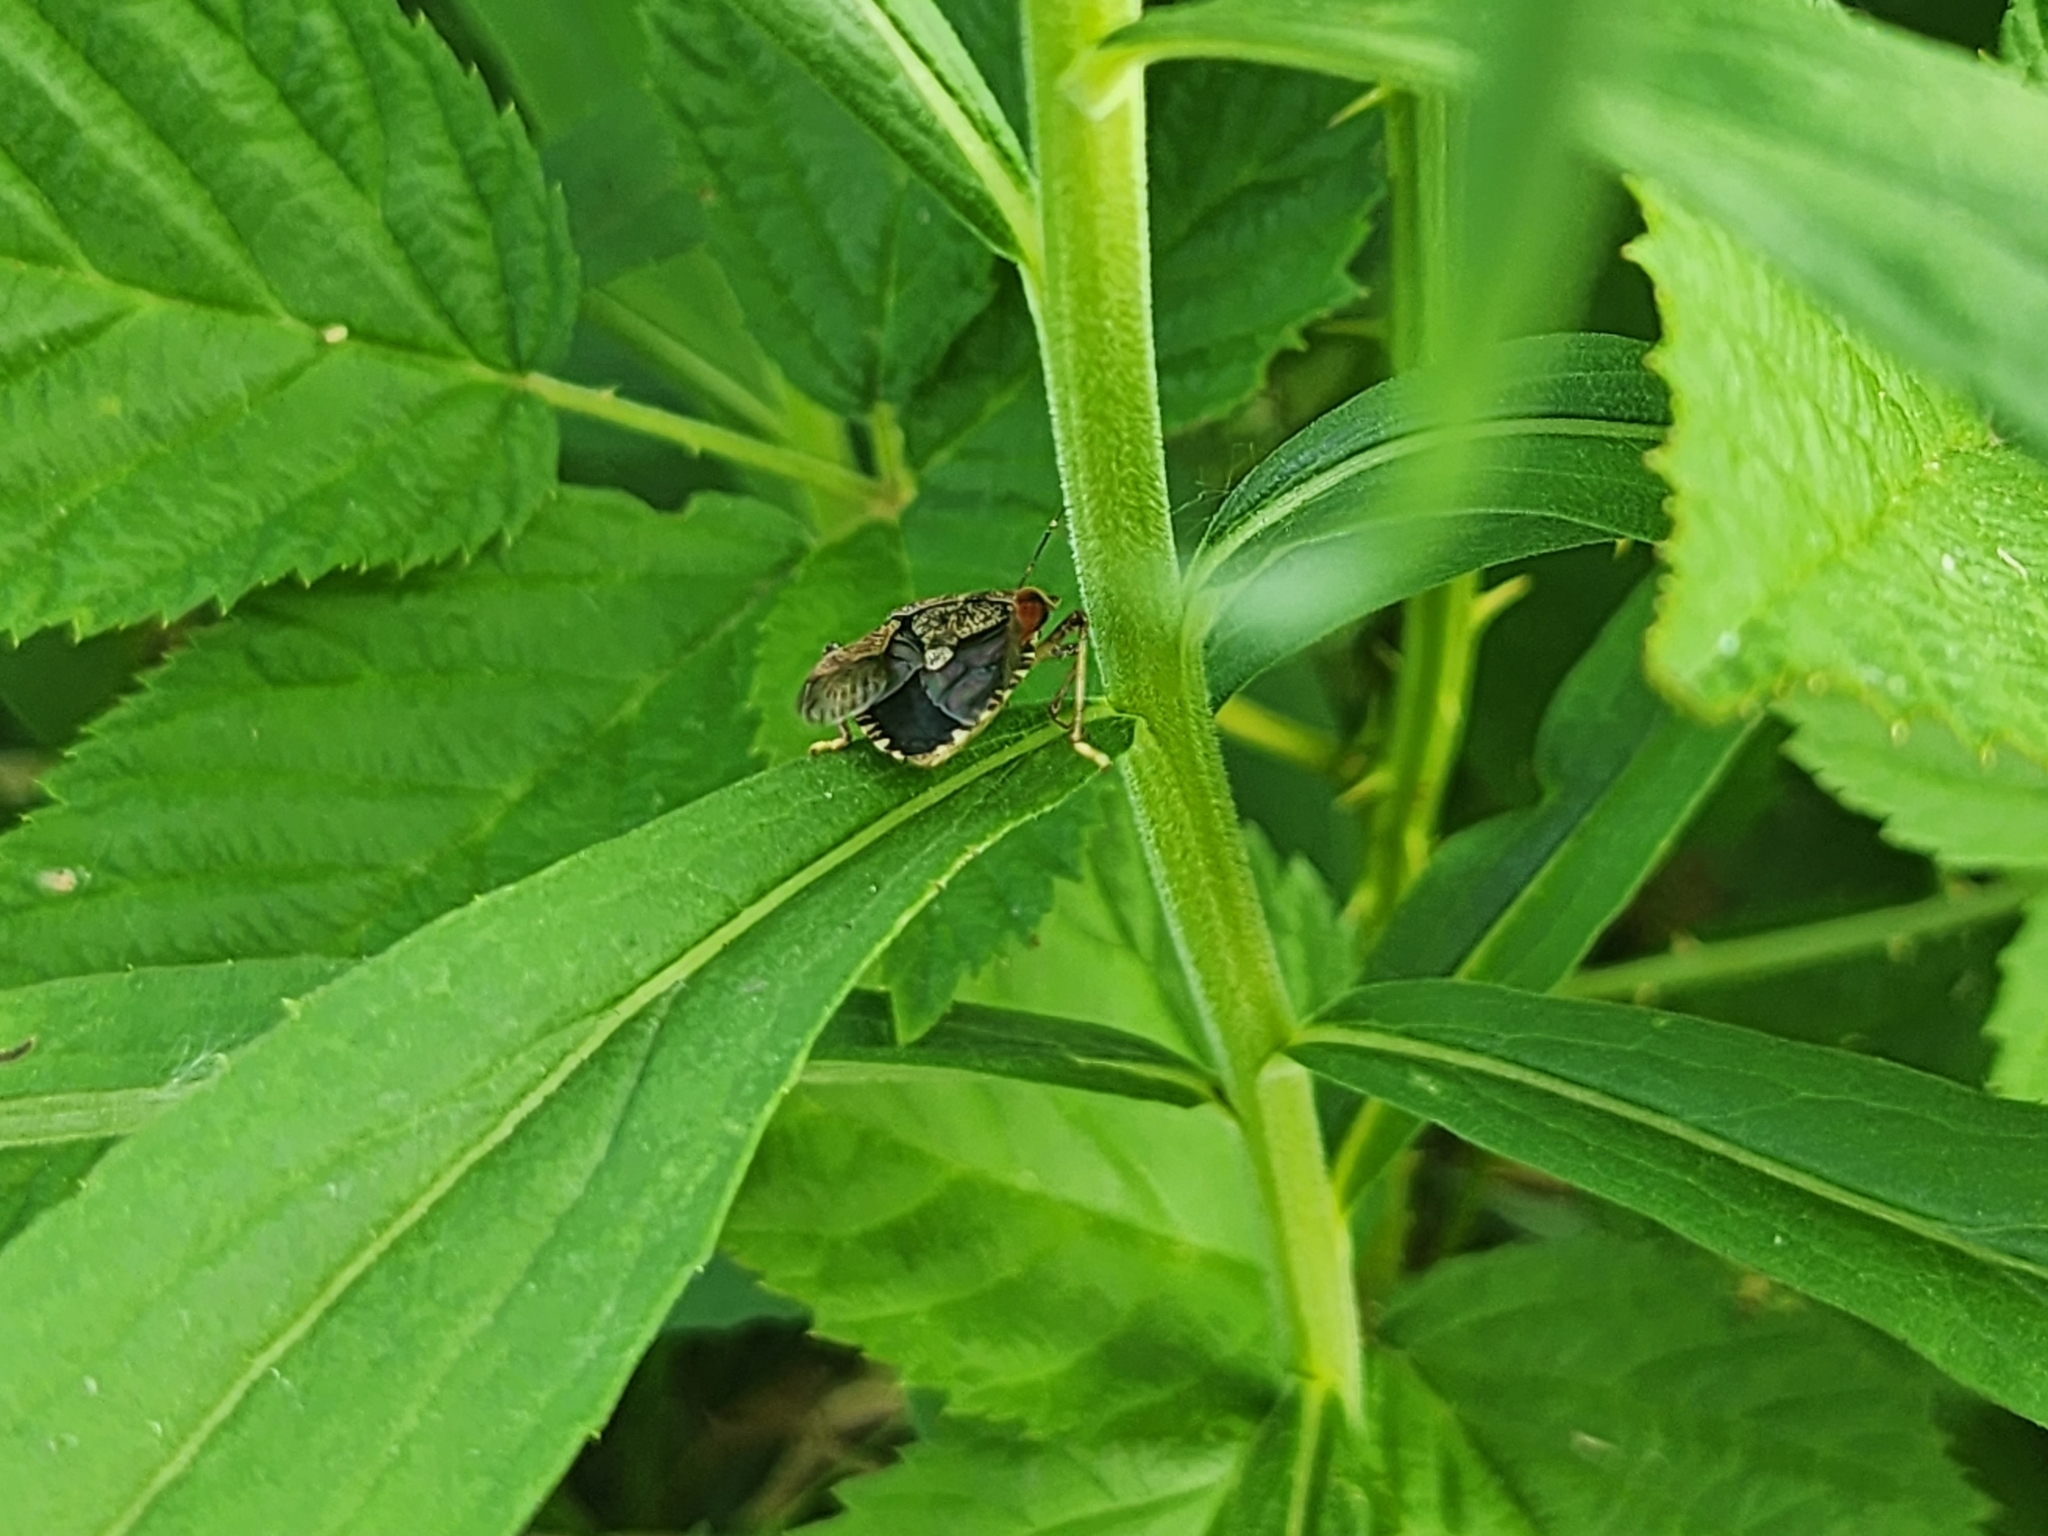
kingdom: Animalia
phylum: Arthropoda
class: Insecta
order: Hemiptera
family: Pentatomidae
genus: Halyomorpha
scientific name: Halyomorpha halys
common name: Brown marmorated stink bug
